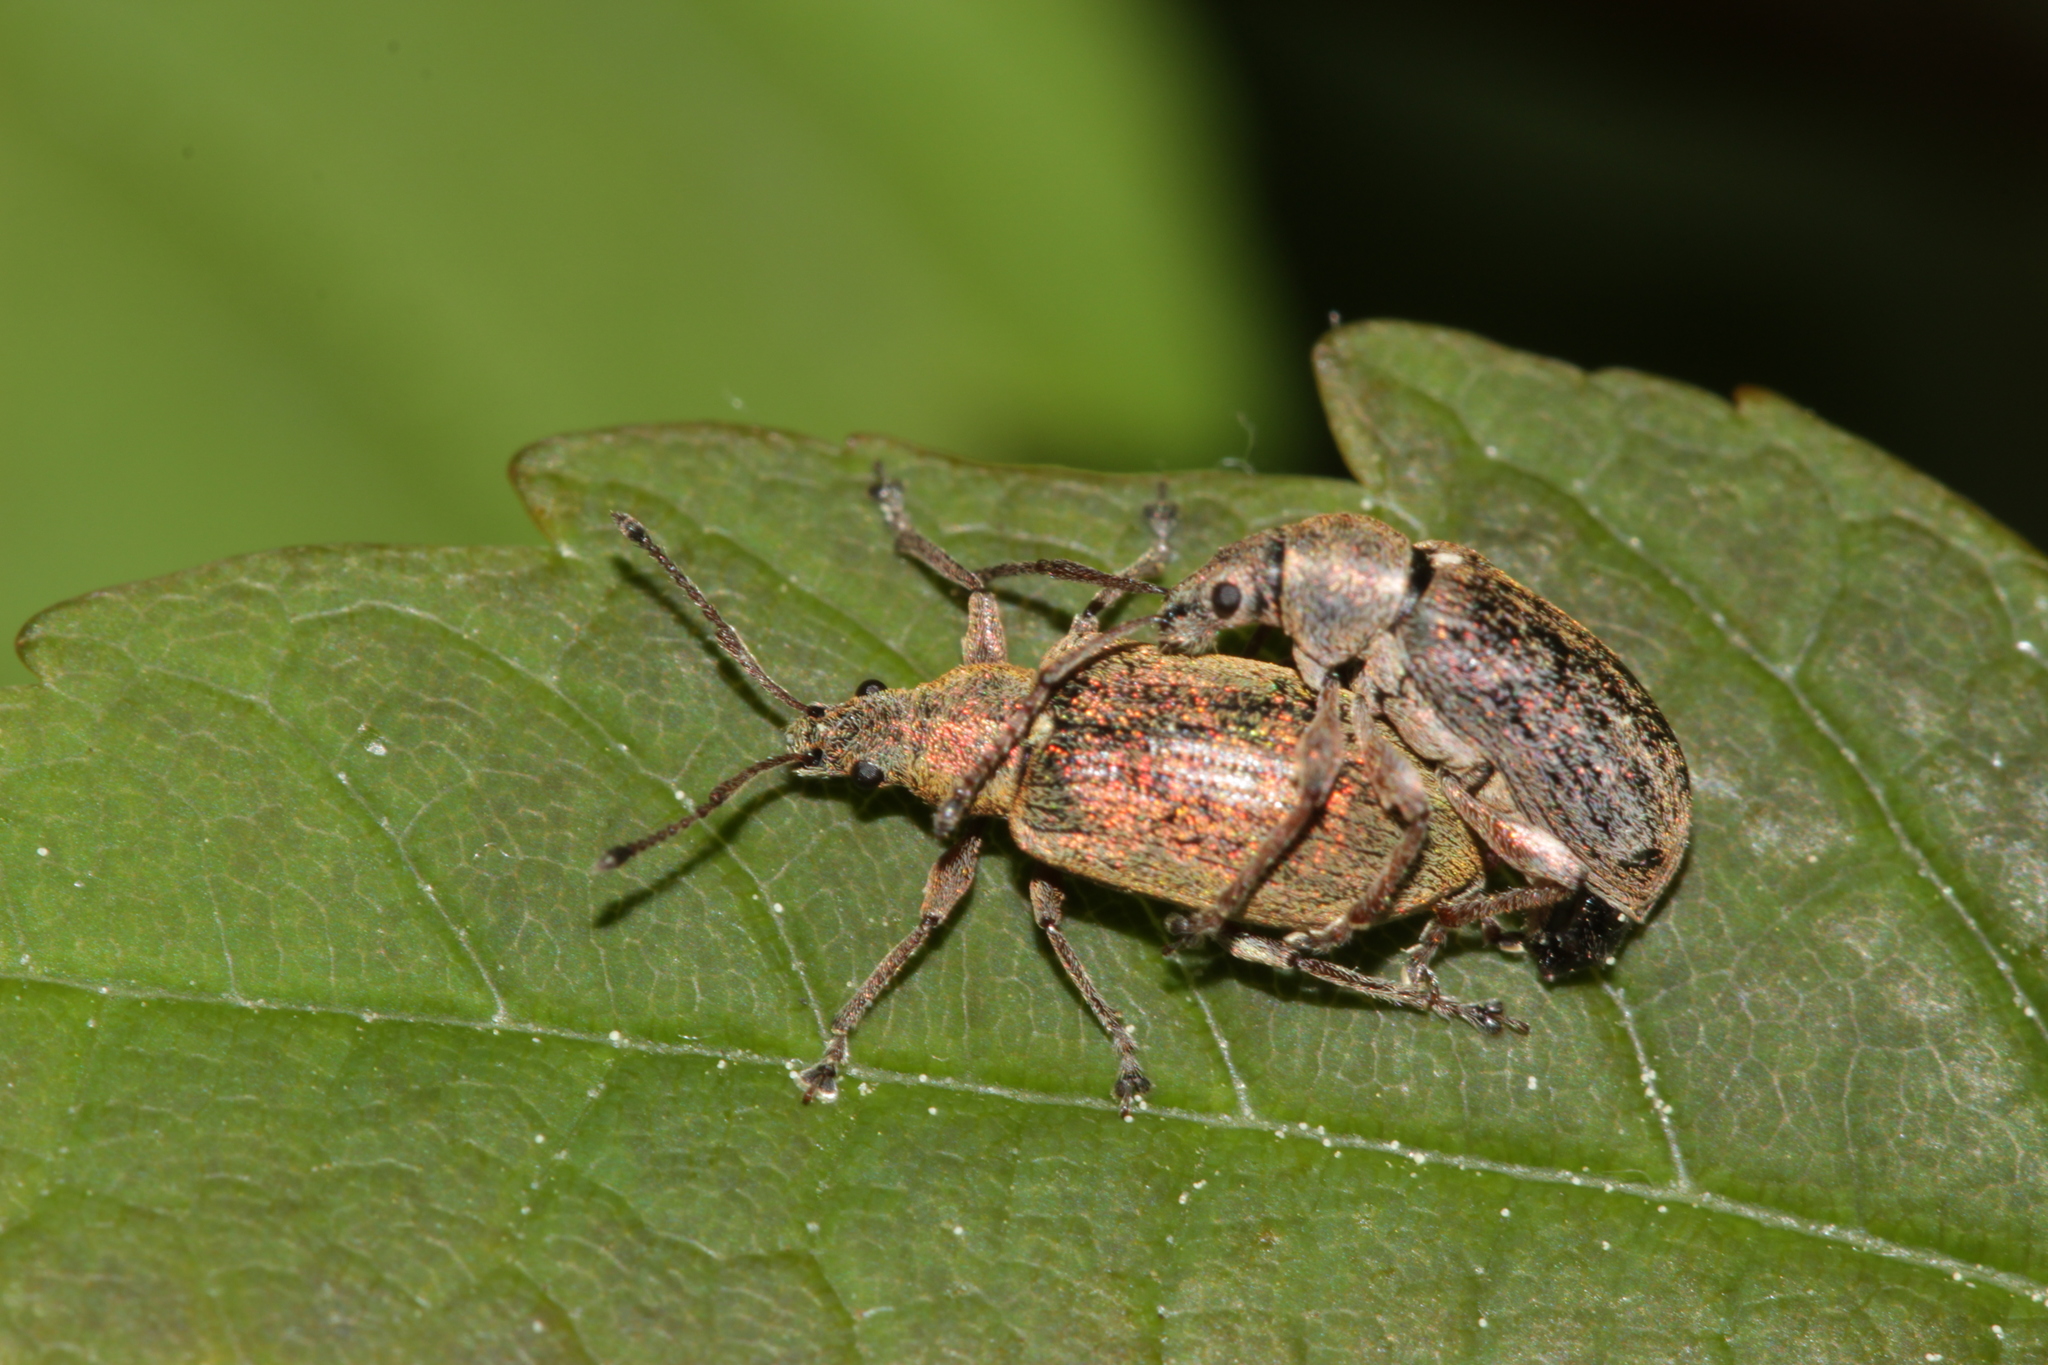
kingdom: Animalia
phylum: Arthropoda
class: Insecta
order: Coleoptera
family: Curculionidae
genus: Phyllobius
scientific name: Phyllobius pyri
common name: Common leaf weevil
